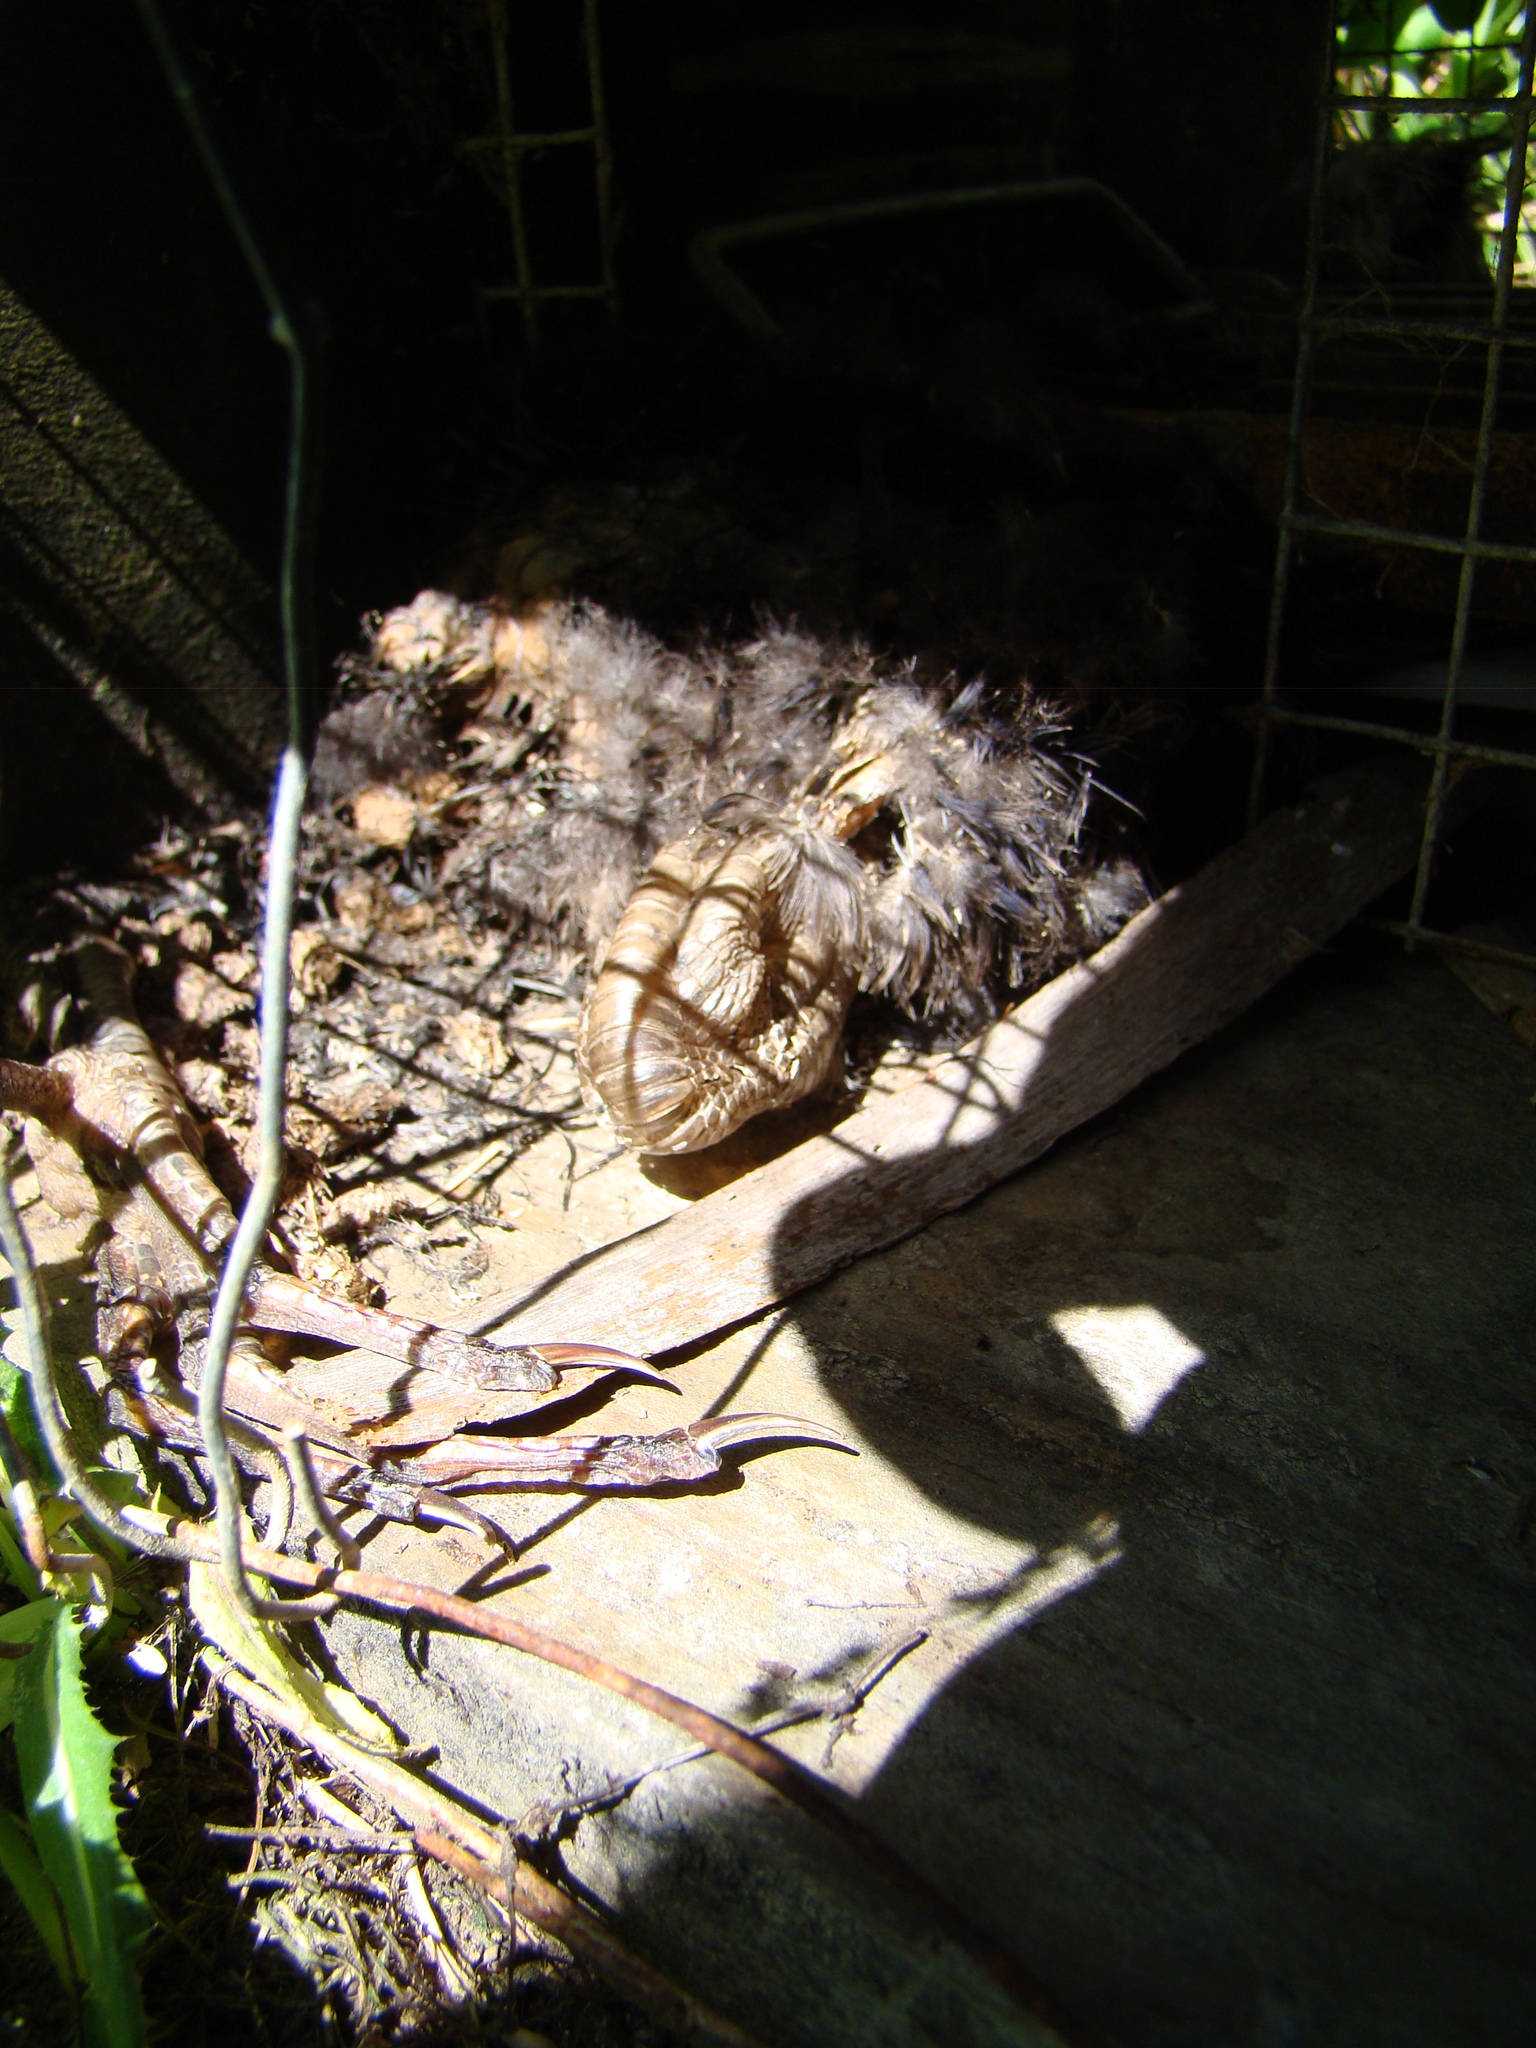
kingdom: Animalia
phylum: Chordata
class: Aves
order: Gruiformes
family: Rallidae
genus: Porphyrio
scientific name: Porphyrio melanotus
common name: Australasian swamphen
